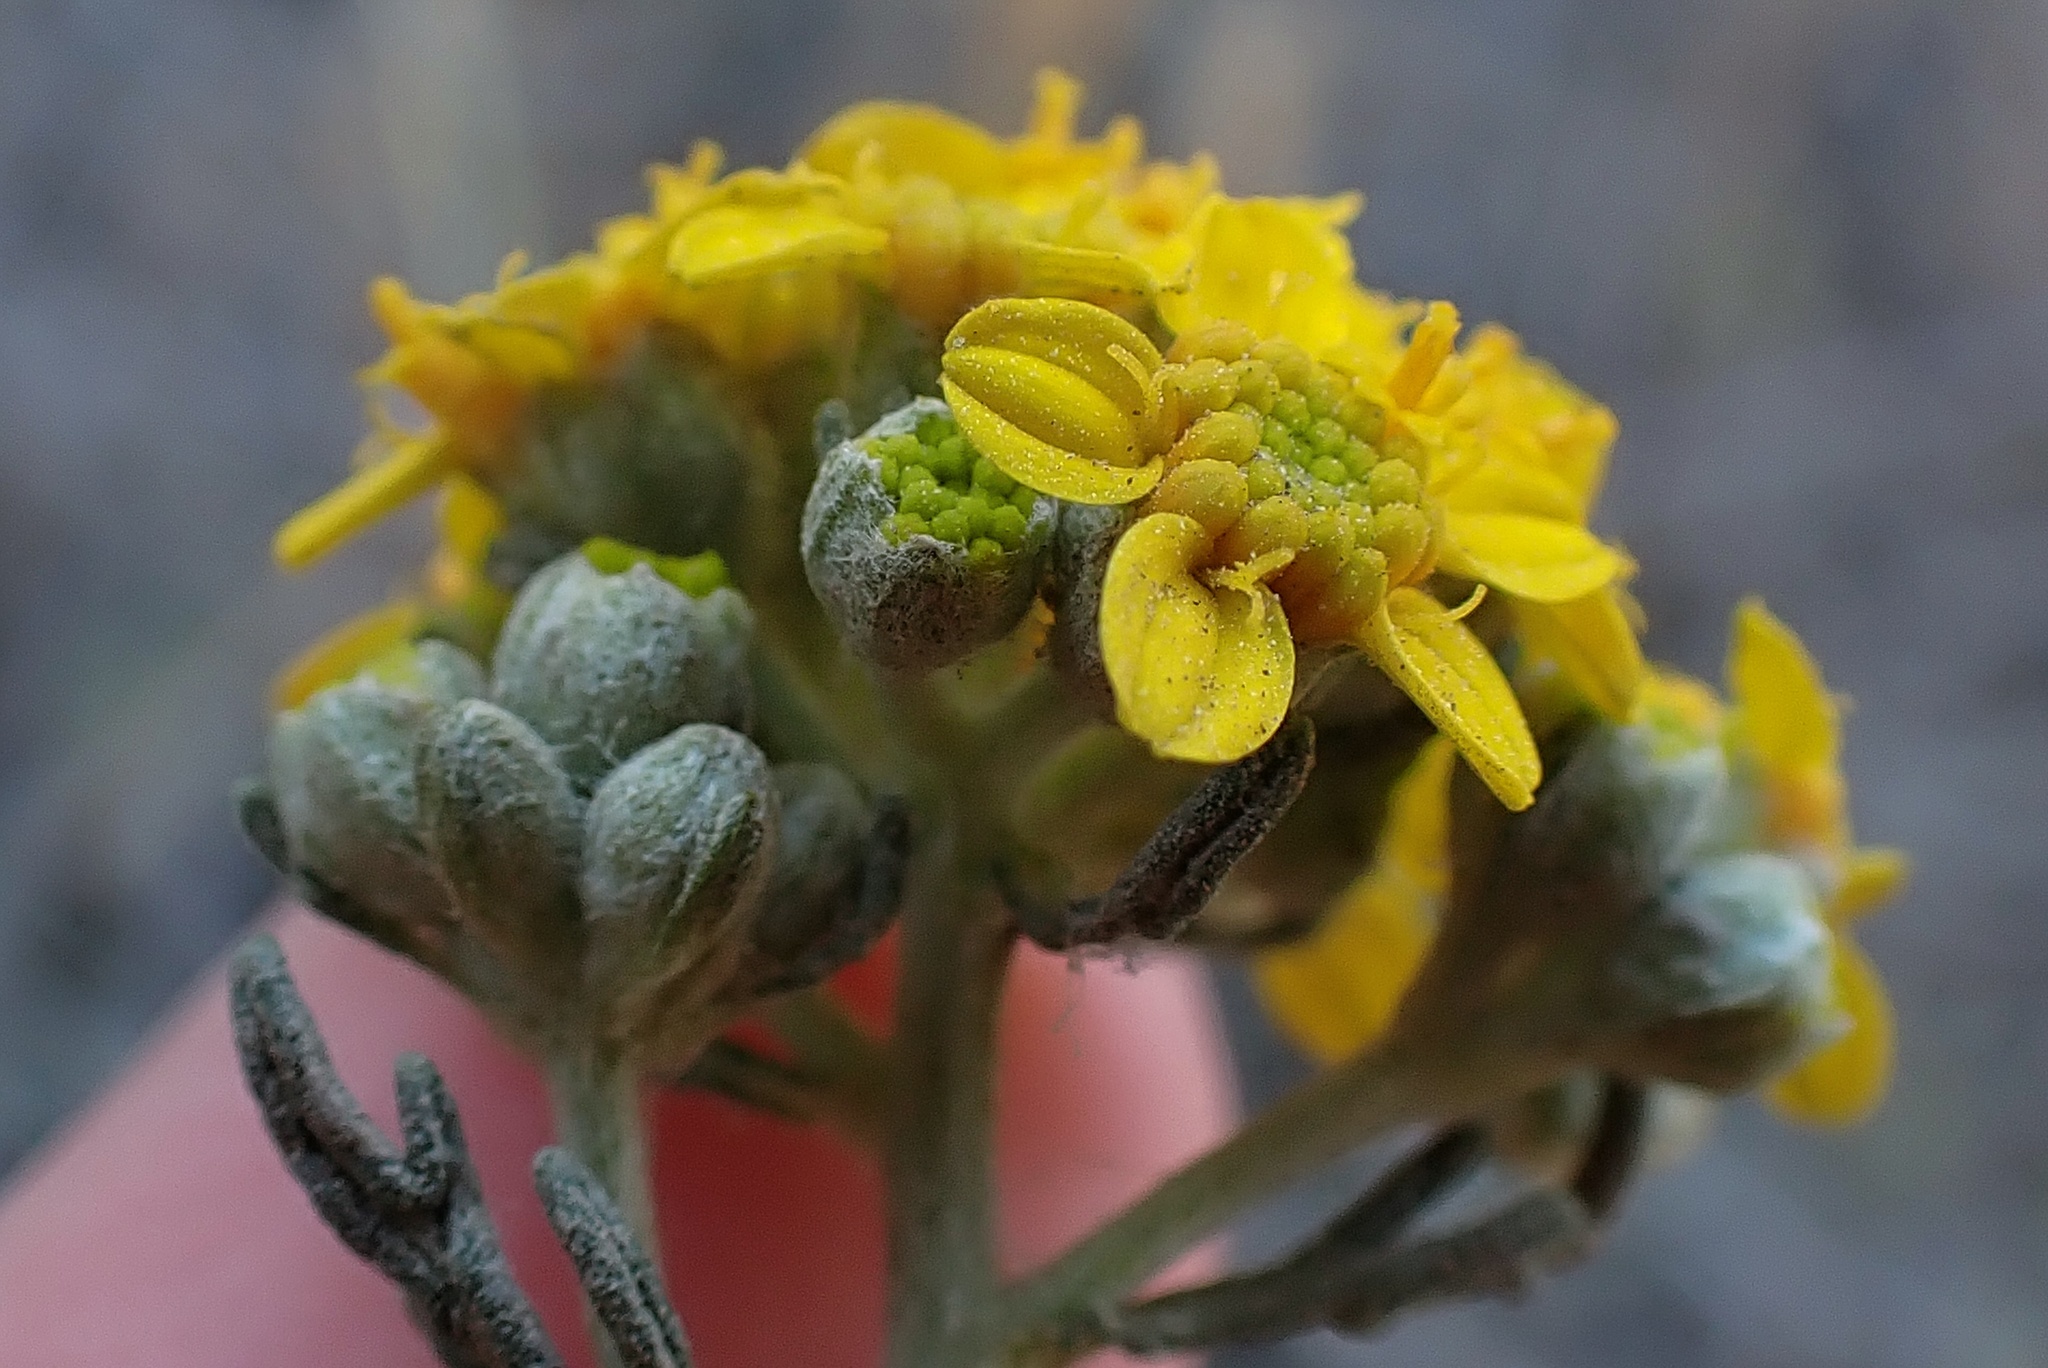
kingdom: Plantae
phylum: Tracheophyta
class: Magnoliopsida
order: Asterales
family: Asteraceae
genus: Eriophyllum
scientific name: Eriophyllum confertiflorum
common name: Golden-yarrow
